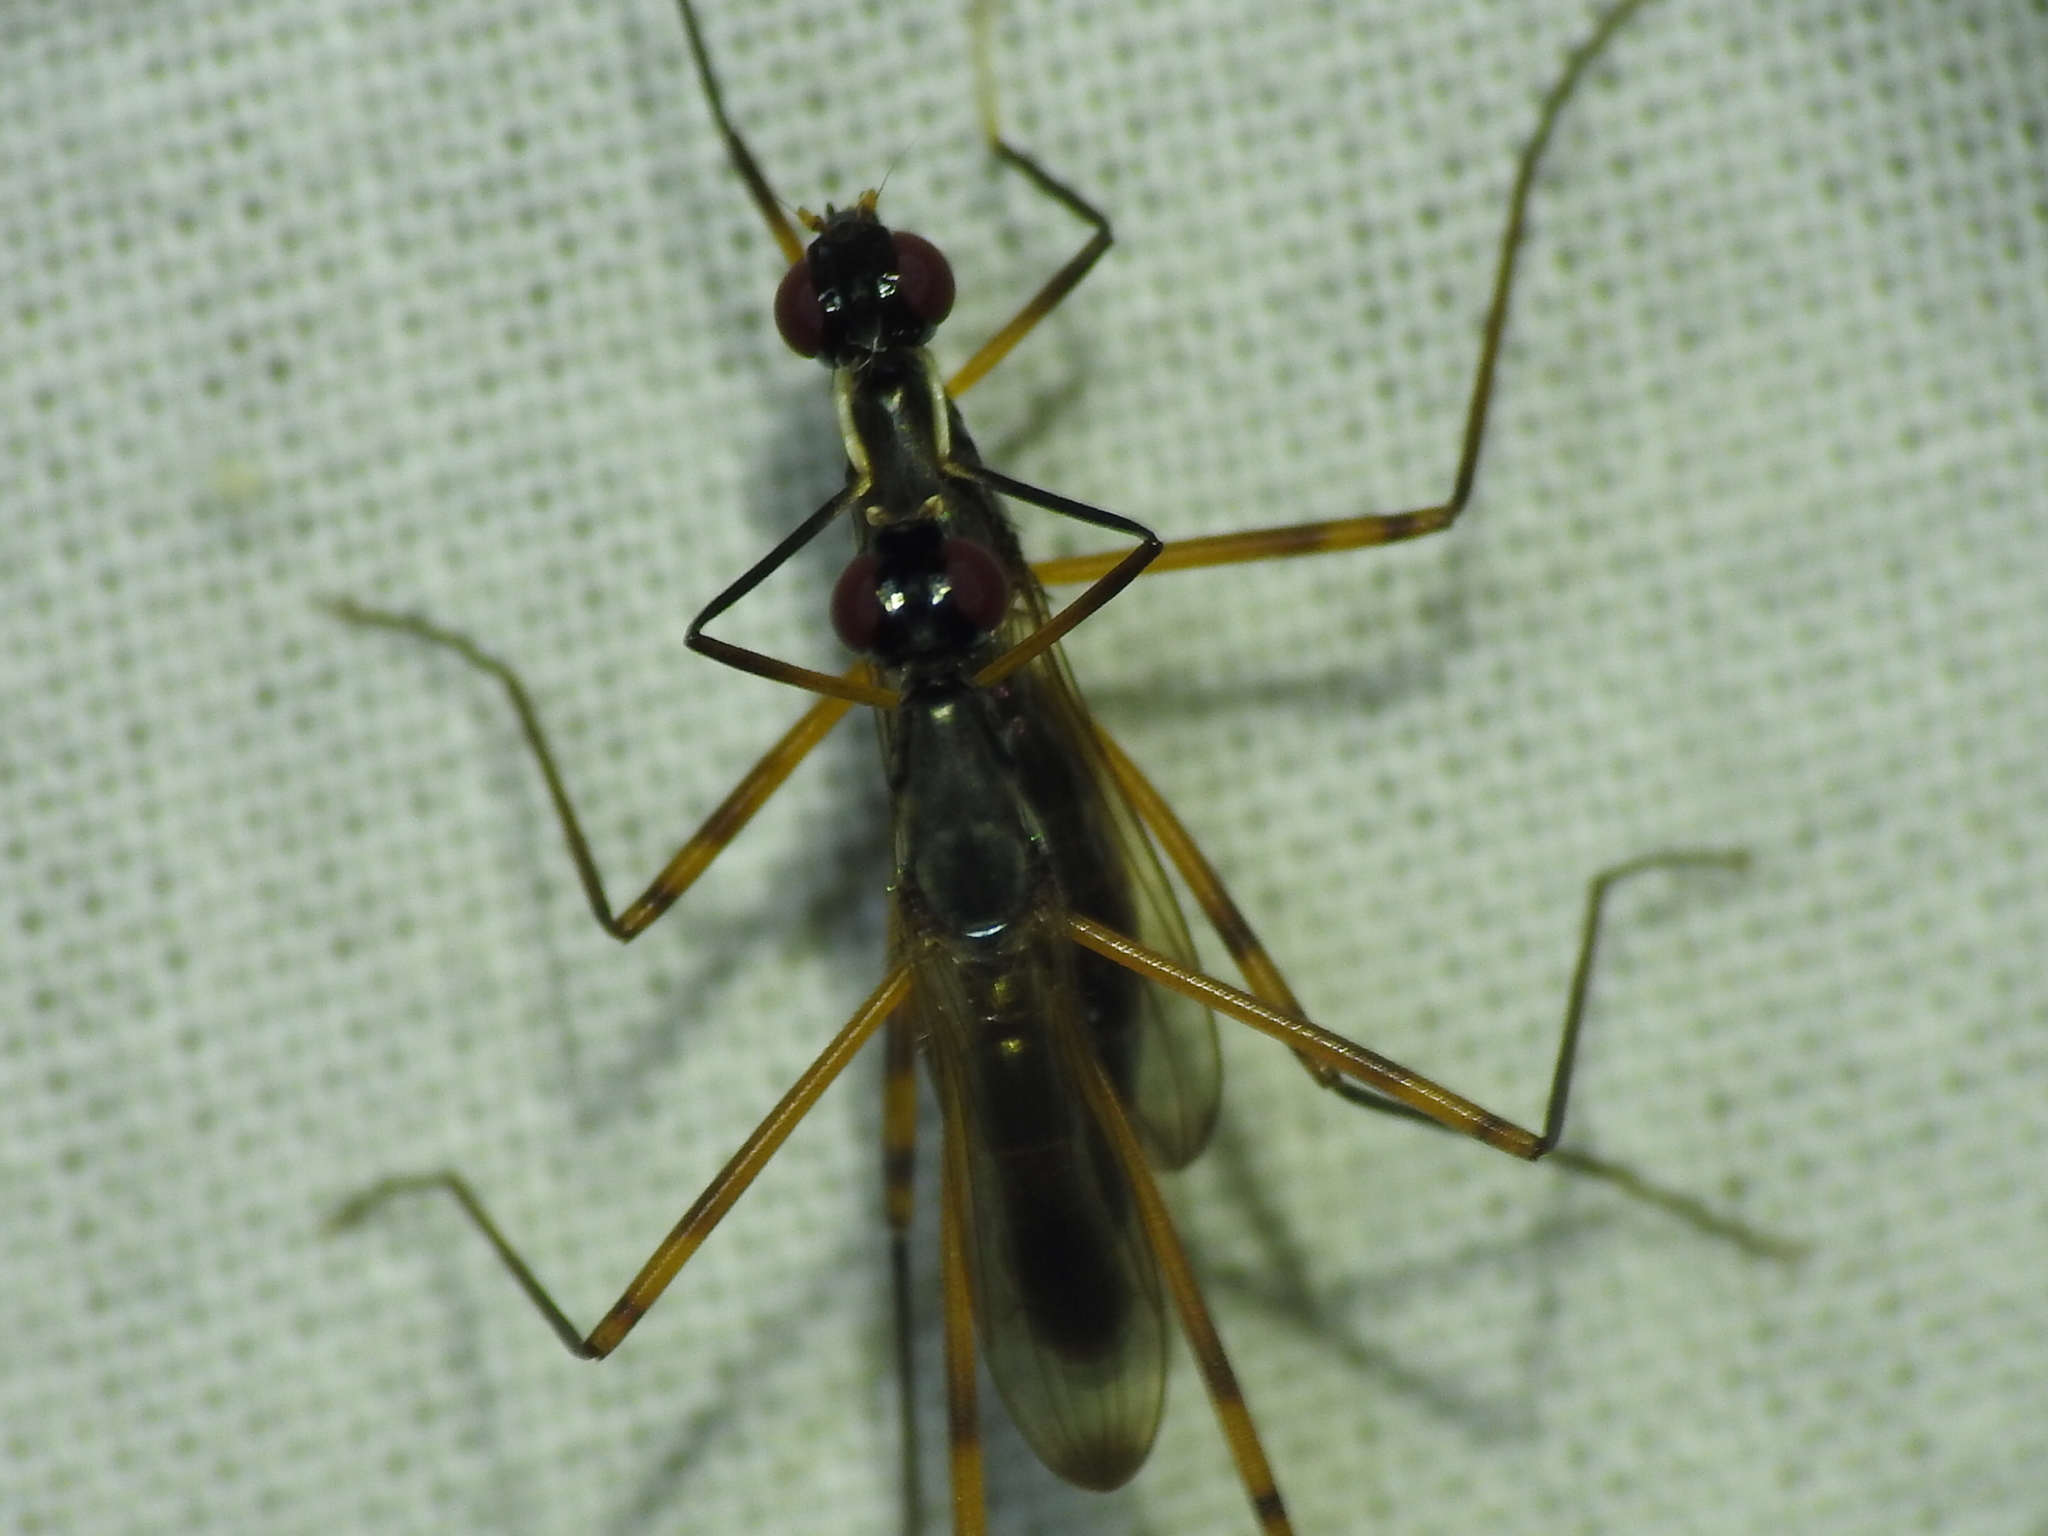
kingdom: Animalia
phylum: Arthropoda
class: Insecta
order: Diptera
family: Micropezidae
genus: Rainieria
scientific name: Rainieria antennaepes
